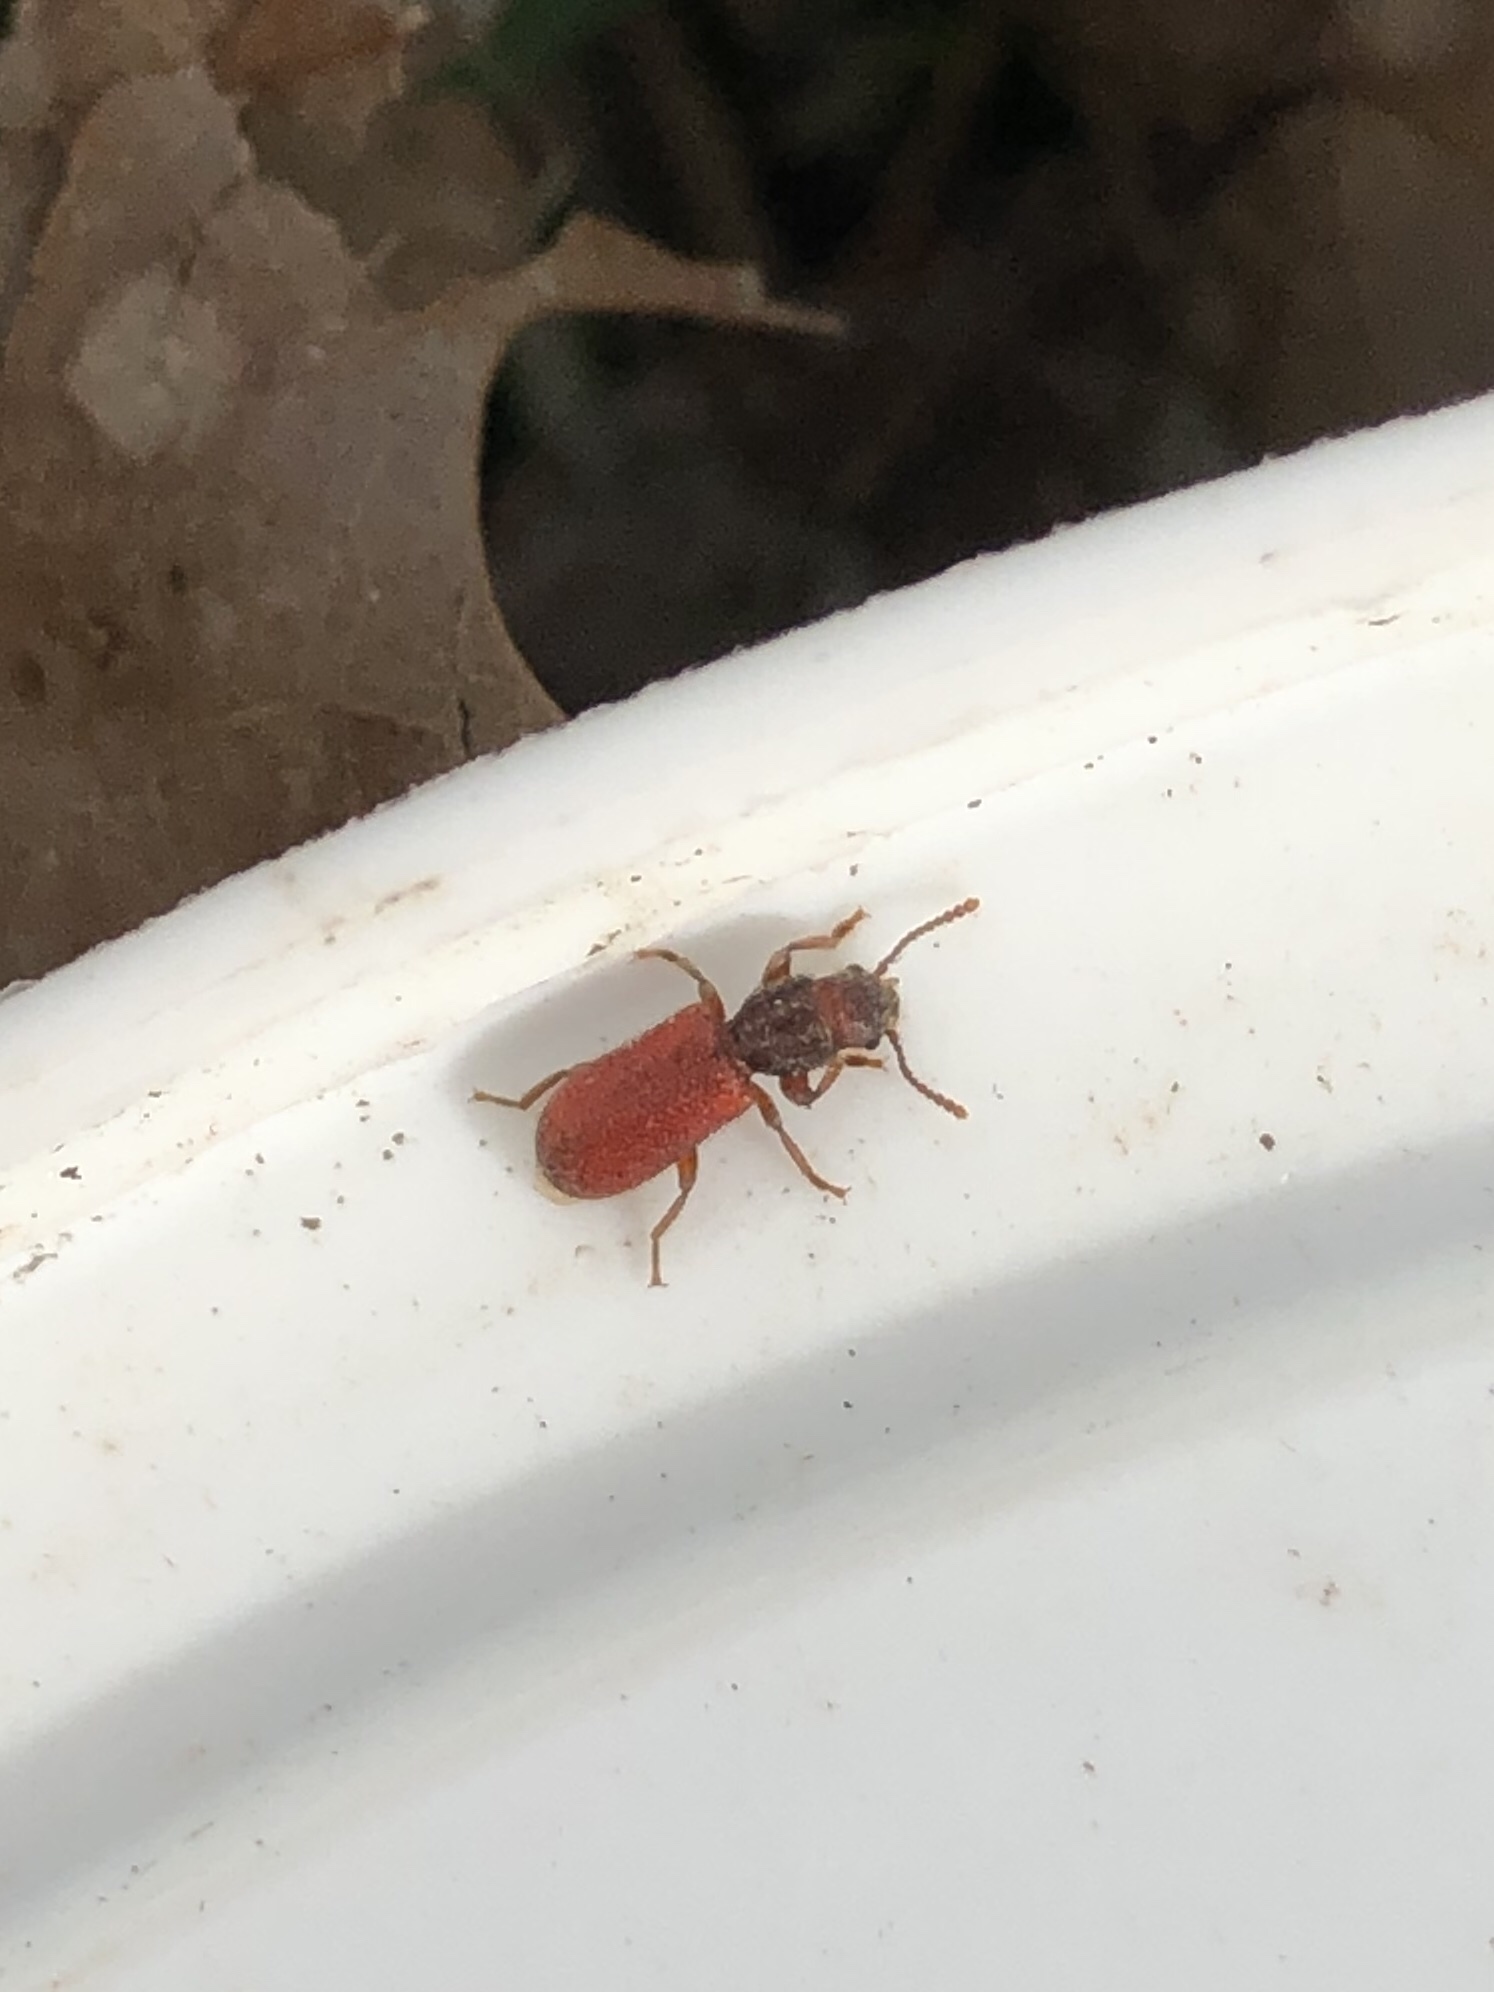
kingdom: Animalia
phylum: Arthropoda
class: Insecta
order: Coleoptera
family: Thanerocleridae
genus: Zenodosus
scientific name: Zenodosus sanguineus
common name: Blood-colored checkered beetle
